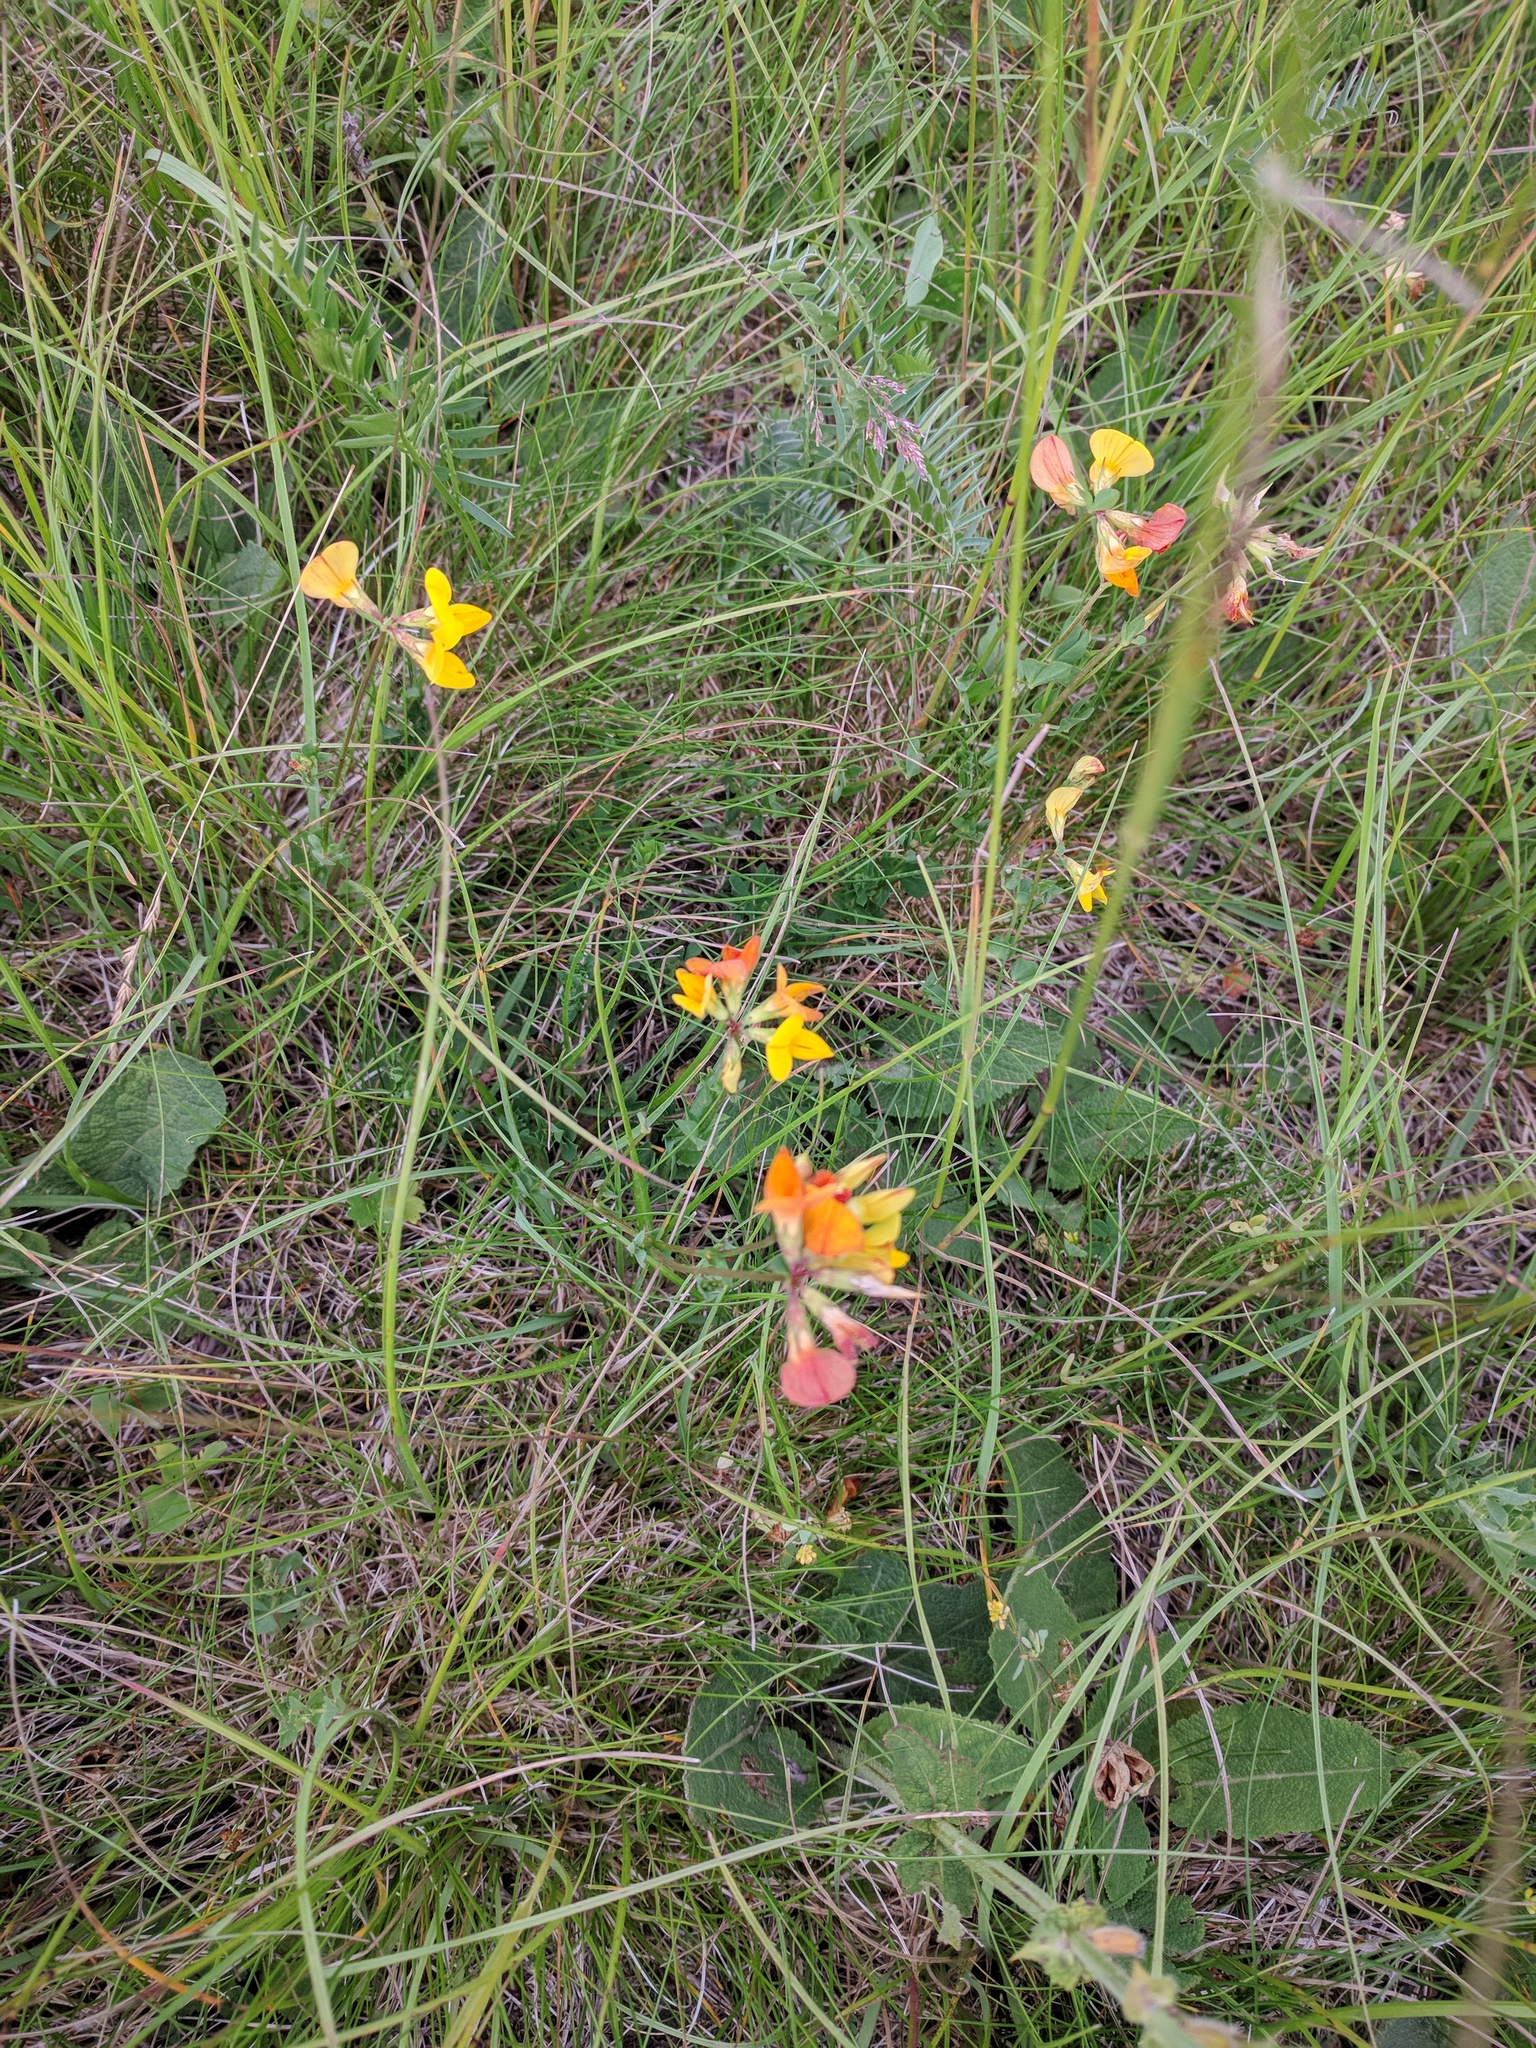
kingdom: Plantae
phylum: Tracheophyta
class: Magnoliopsida
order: Fabales
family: Fabaceae
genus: Lotus
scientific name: Lotus corniculatus
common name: Common bird's-foot-trefoil
